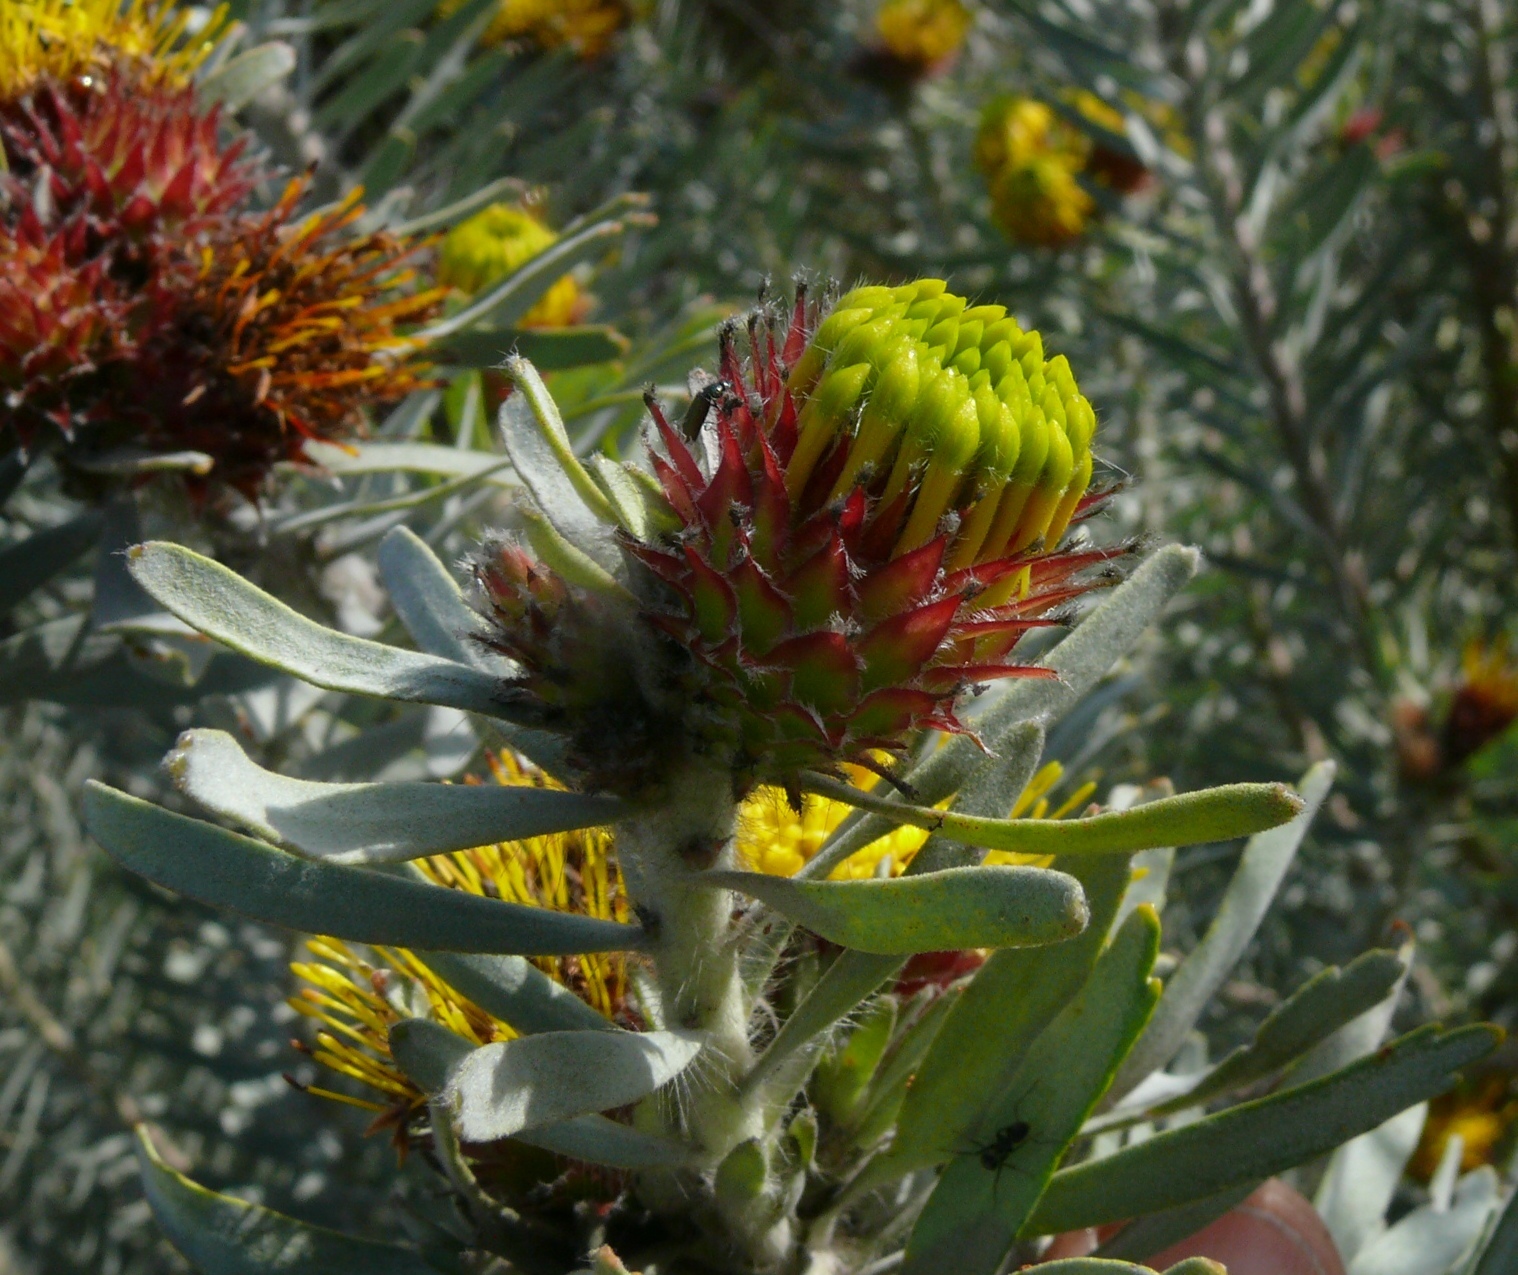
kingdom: Plantae
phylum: Tracheophyta
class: Magnoliopsida
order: Proteales
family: Proteaceae
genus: Leucospermum
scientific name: Leucospermum parile
